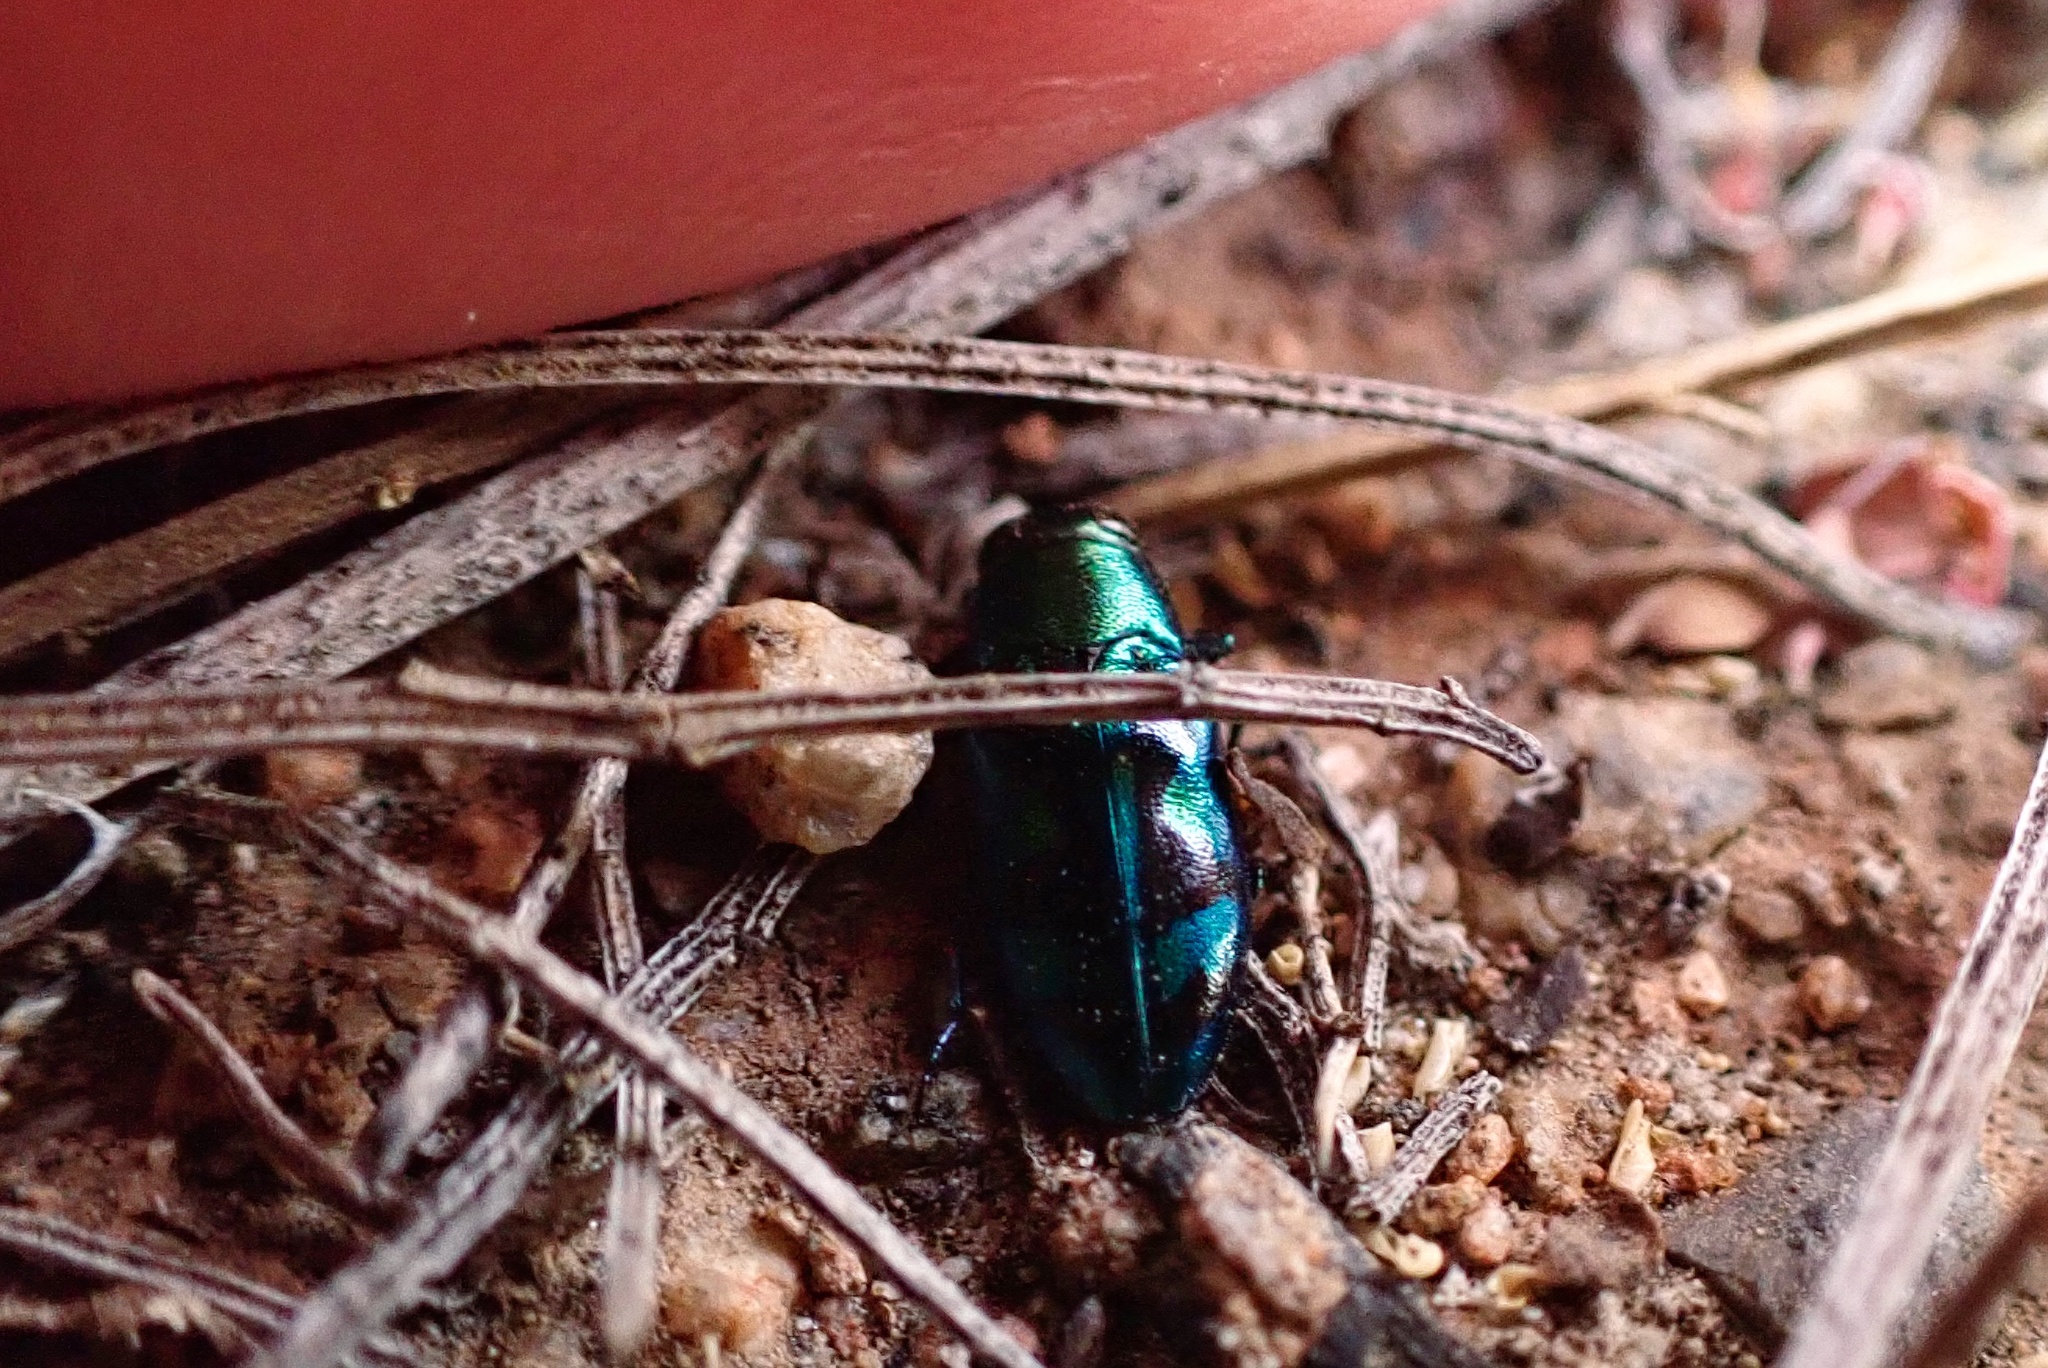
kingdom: Animalia
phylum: Arthropoda
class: Insecta
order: Coleoptera
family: Buprestidae
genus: Chrysobothris
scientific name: Chrysobothris lucana
